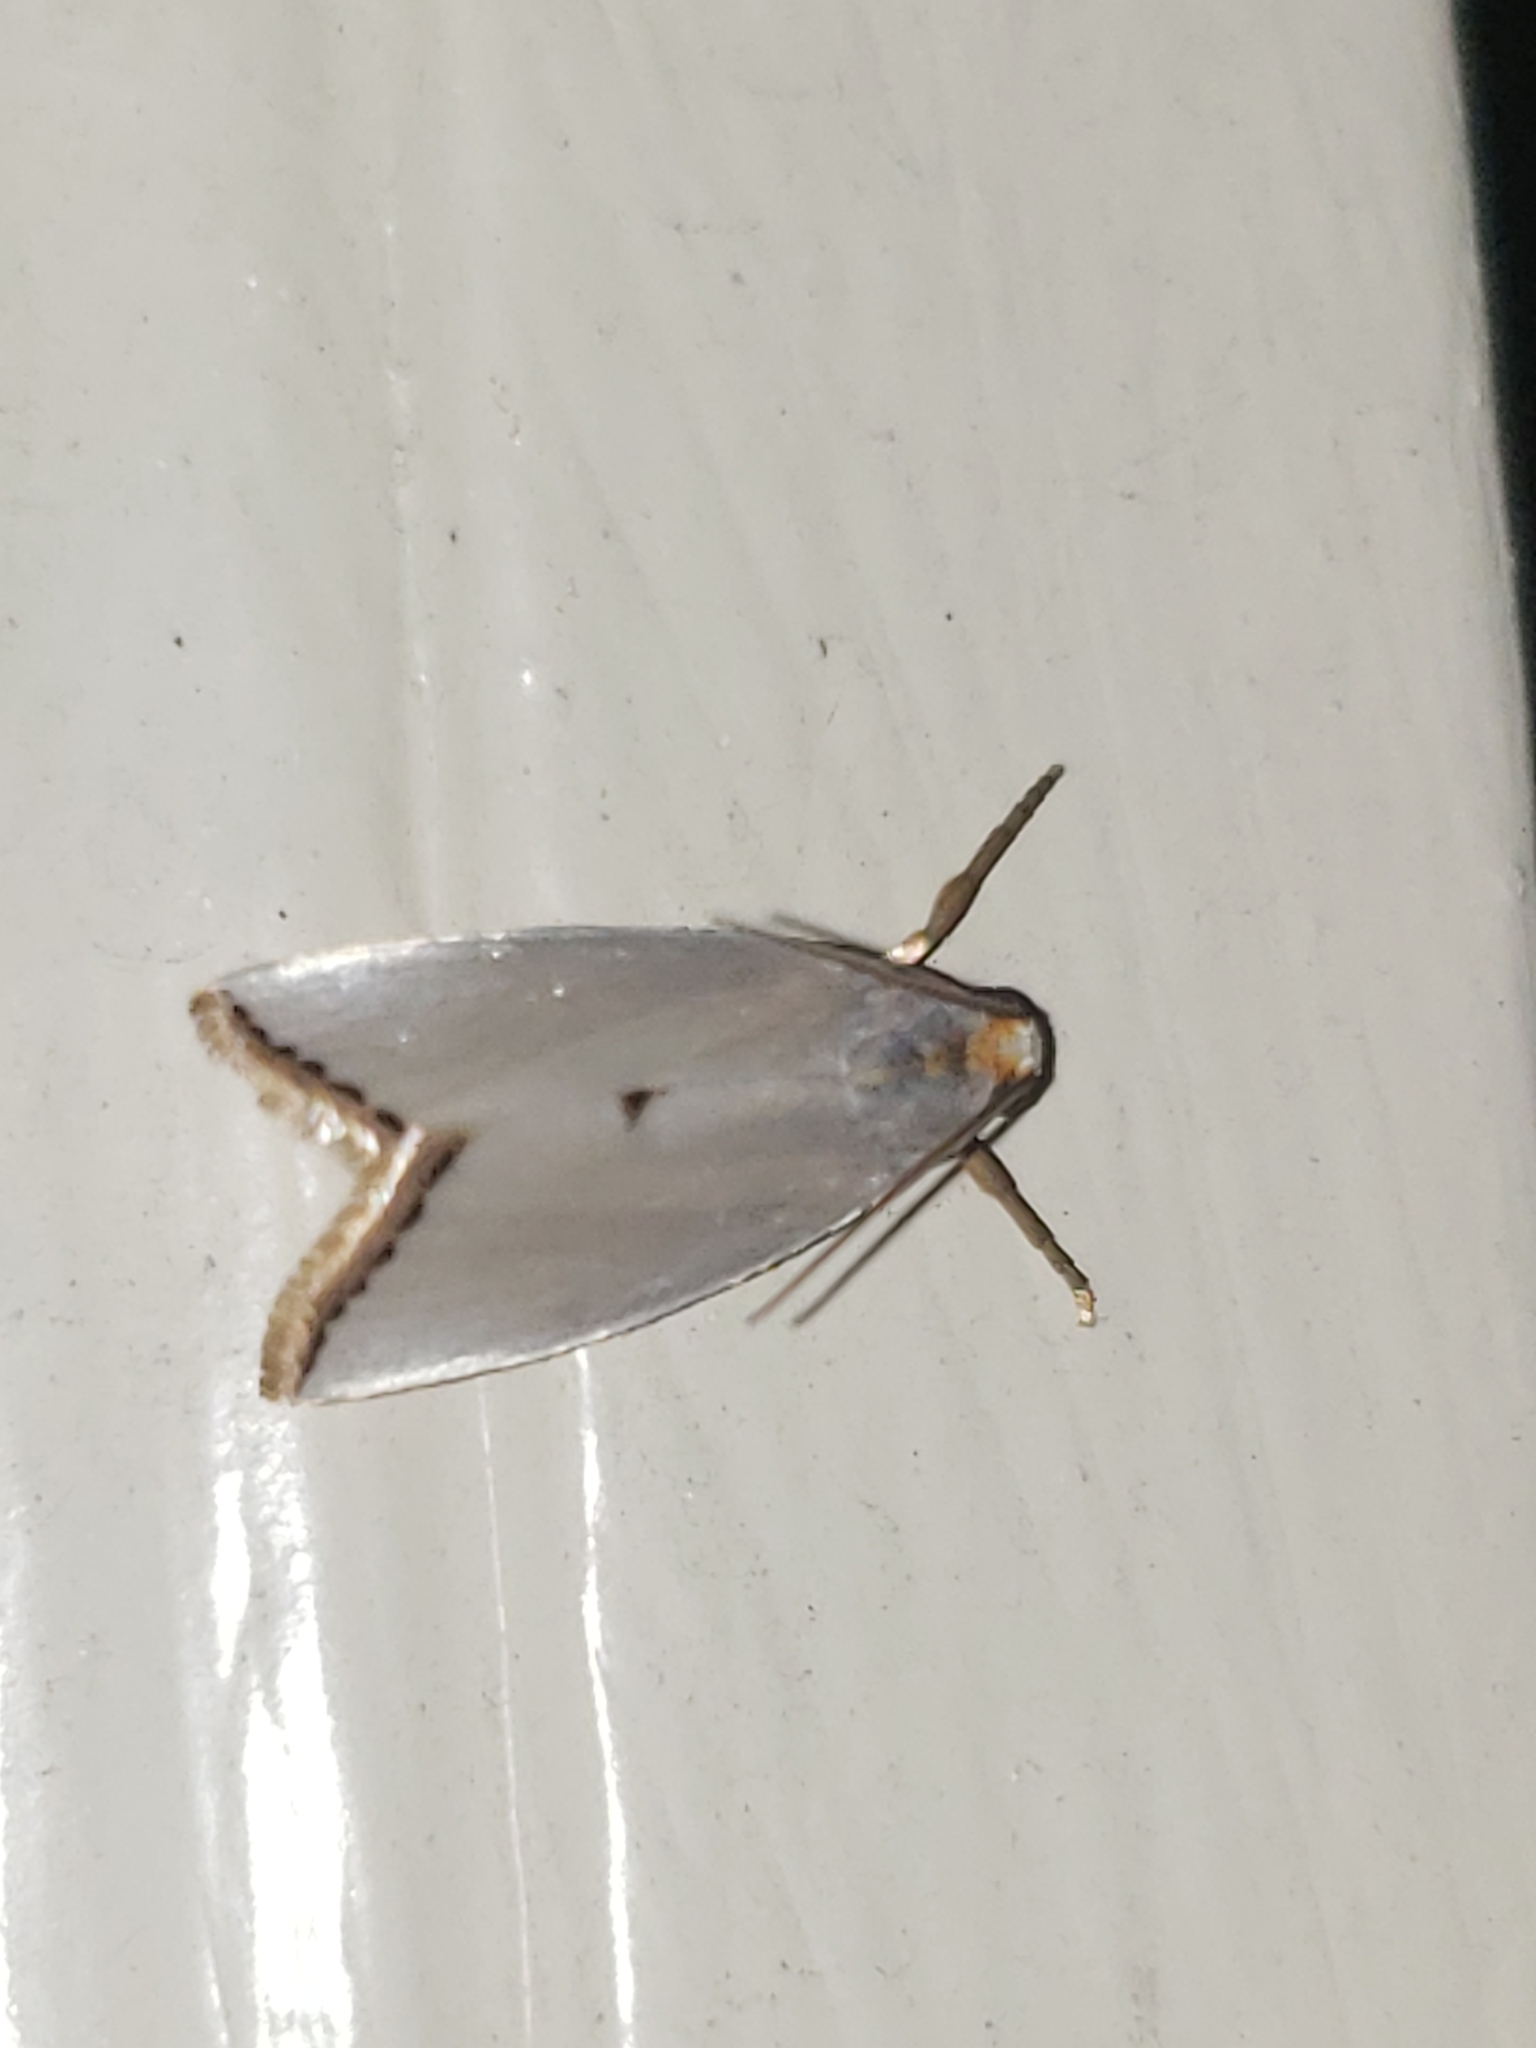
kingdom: Animalia
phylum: Arthropoda
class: Insecta
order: Lepidoptera
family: Crambidae
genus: Argyria
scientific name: Argyria nivalis
